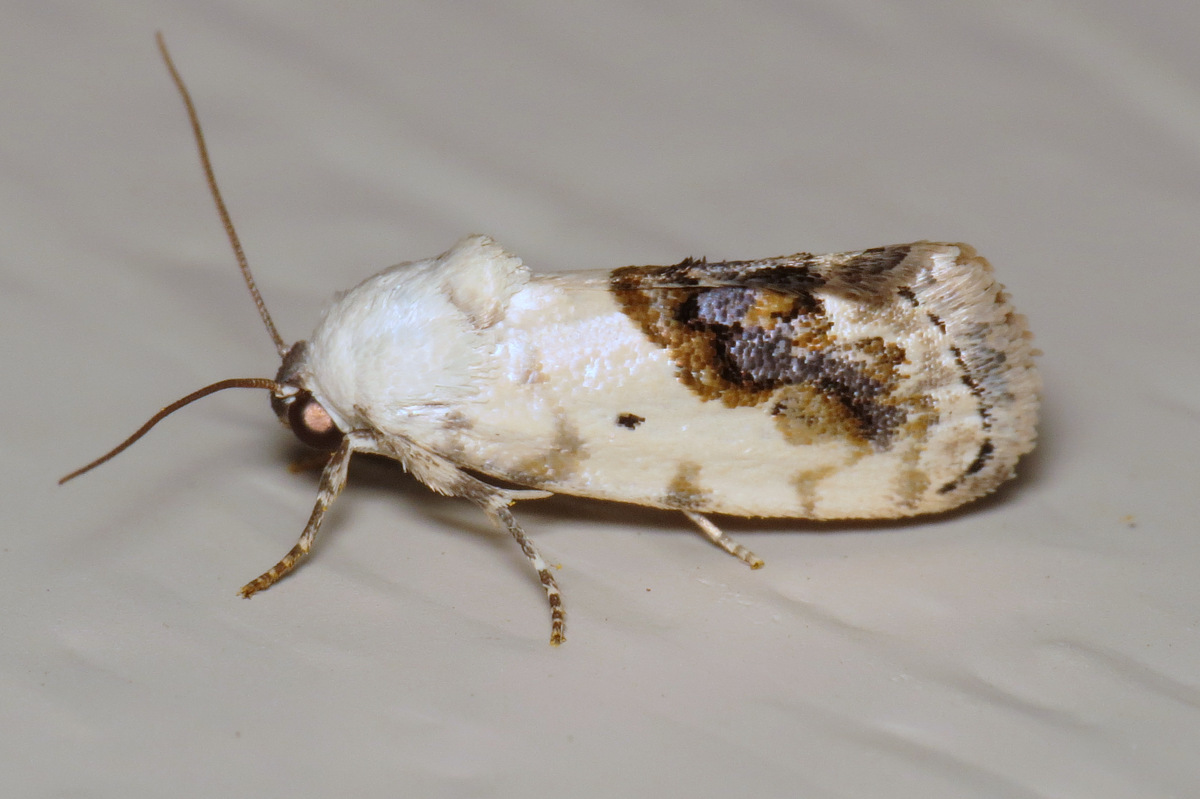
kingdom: Animalia
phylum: Arthropoda
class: Insecta
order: Lepidoptera
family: Noctuidae
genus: Acontia
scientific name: Acontia erastrioides
